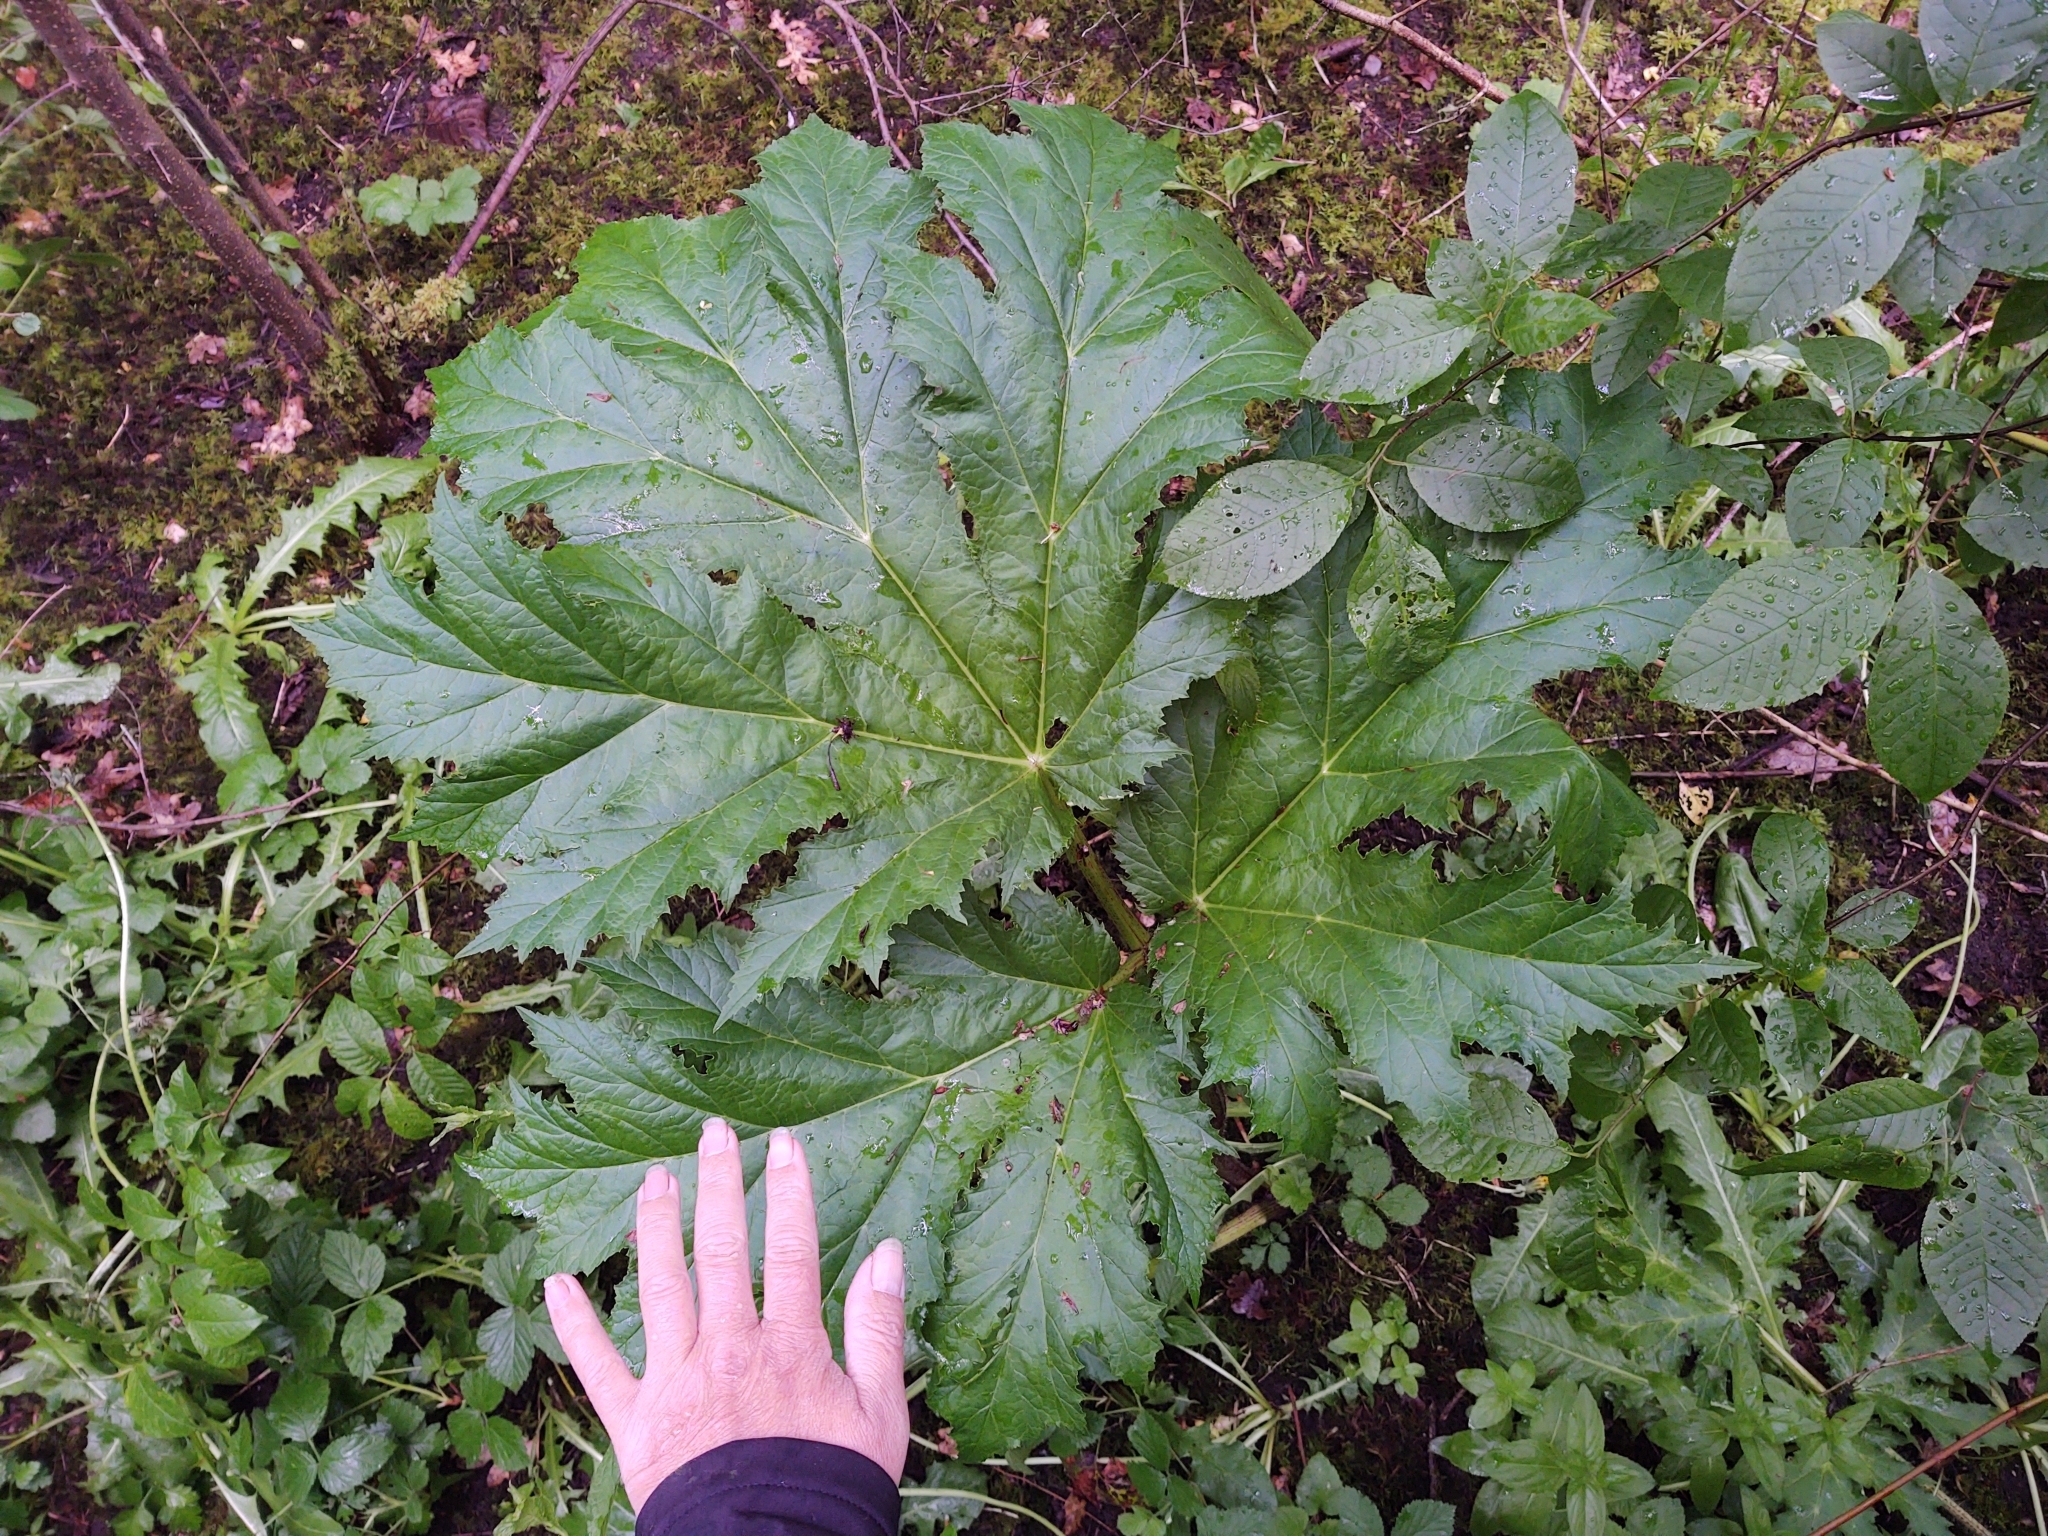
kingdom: Plantae
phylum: Tracheophyta
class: Magnoliopsida
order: Apiales
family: Apiaceae
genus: Heracleum
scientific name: Heracleum mantegazzianum
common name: Giant hogweed
